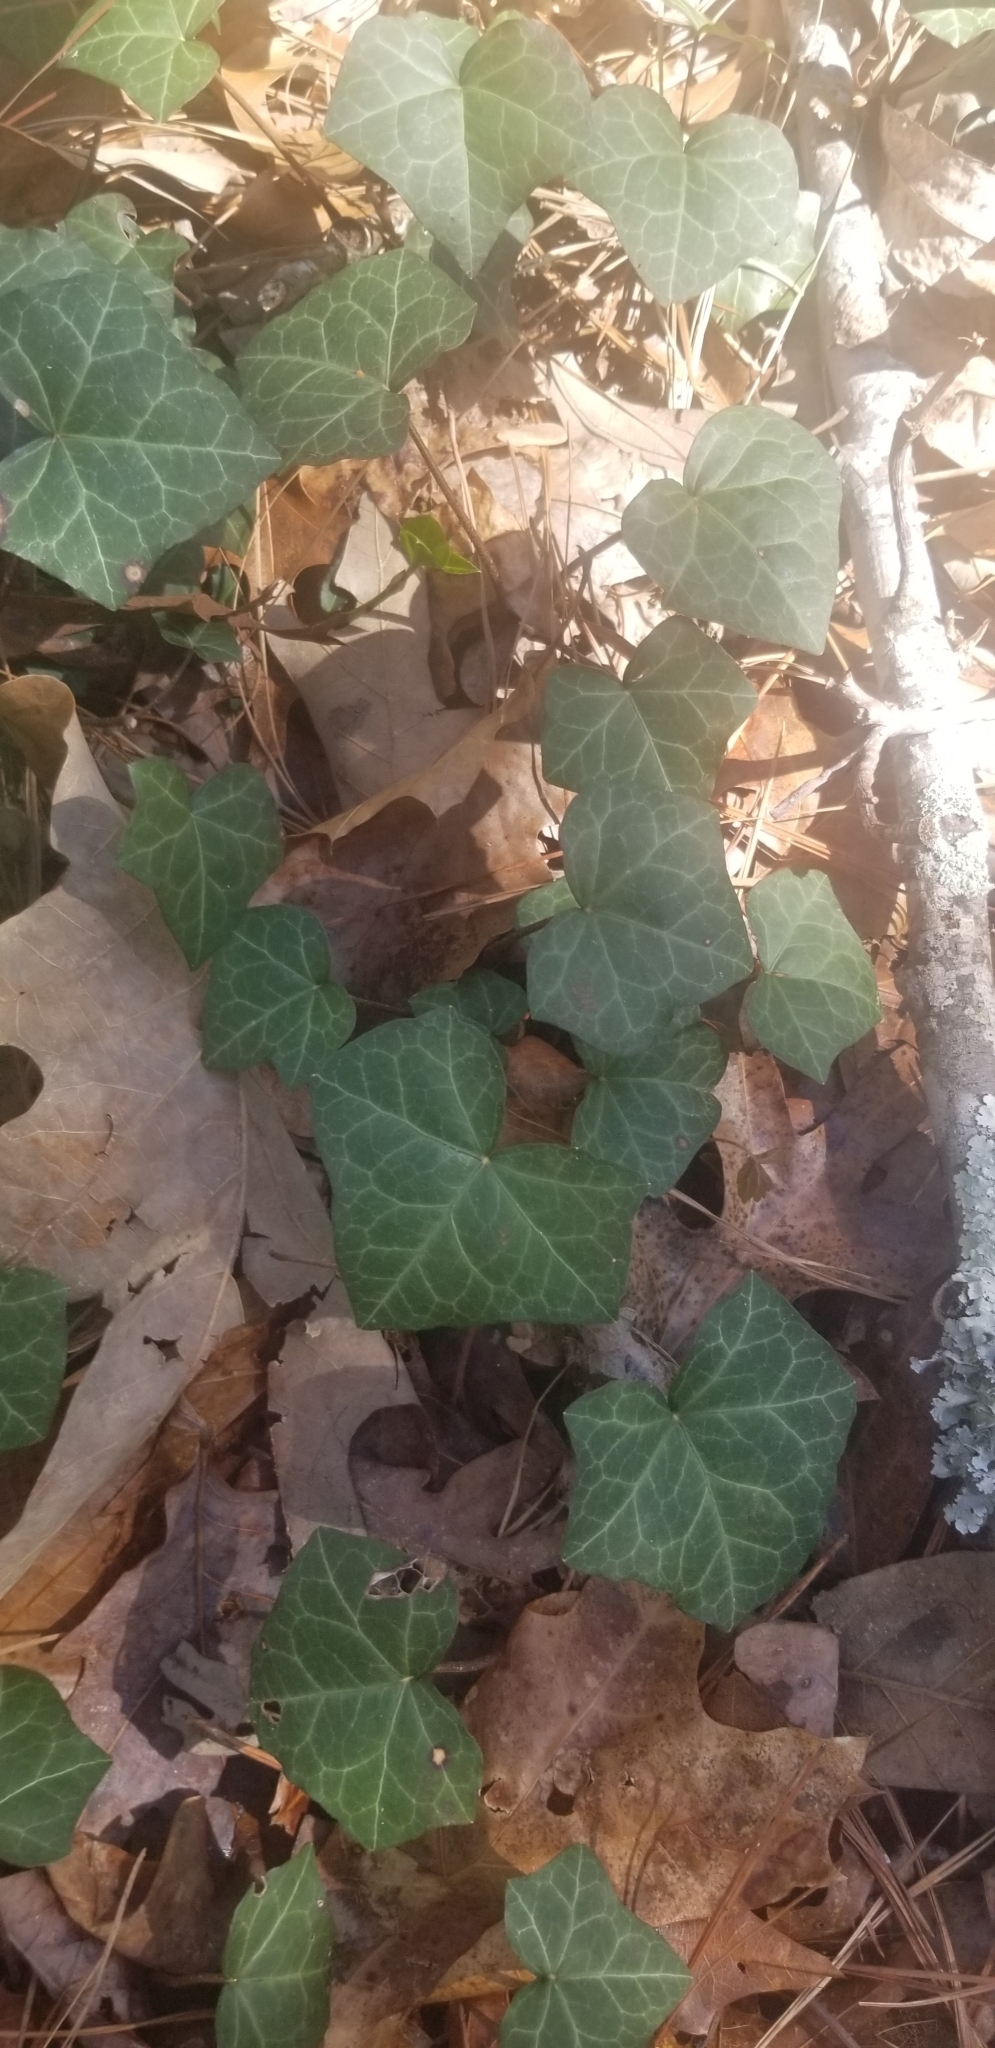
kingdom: Plantae
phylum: Tracheophyta
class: Magnoliopsida
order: Apiales
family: Araliaceae
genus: Hedera
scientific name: Hedera helix
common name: Ivy
